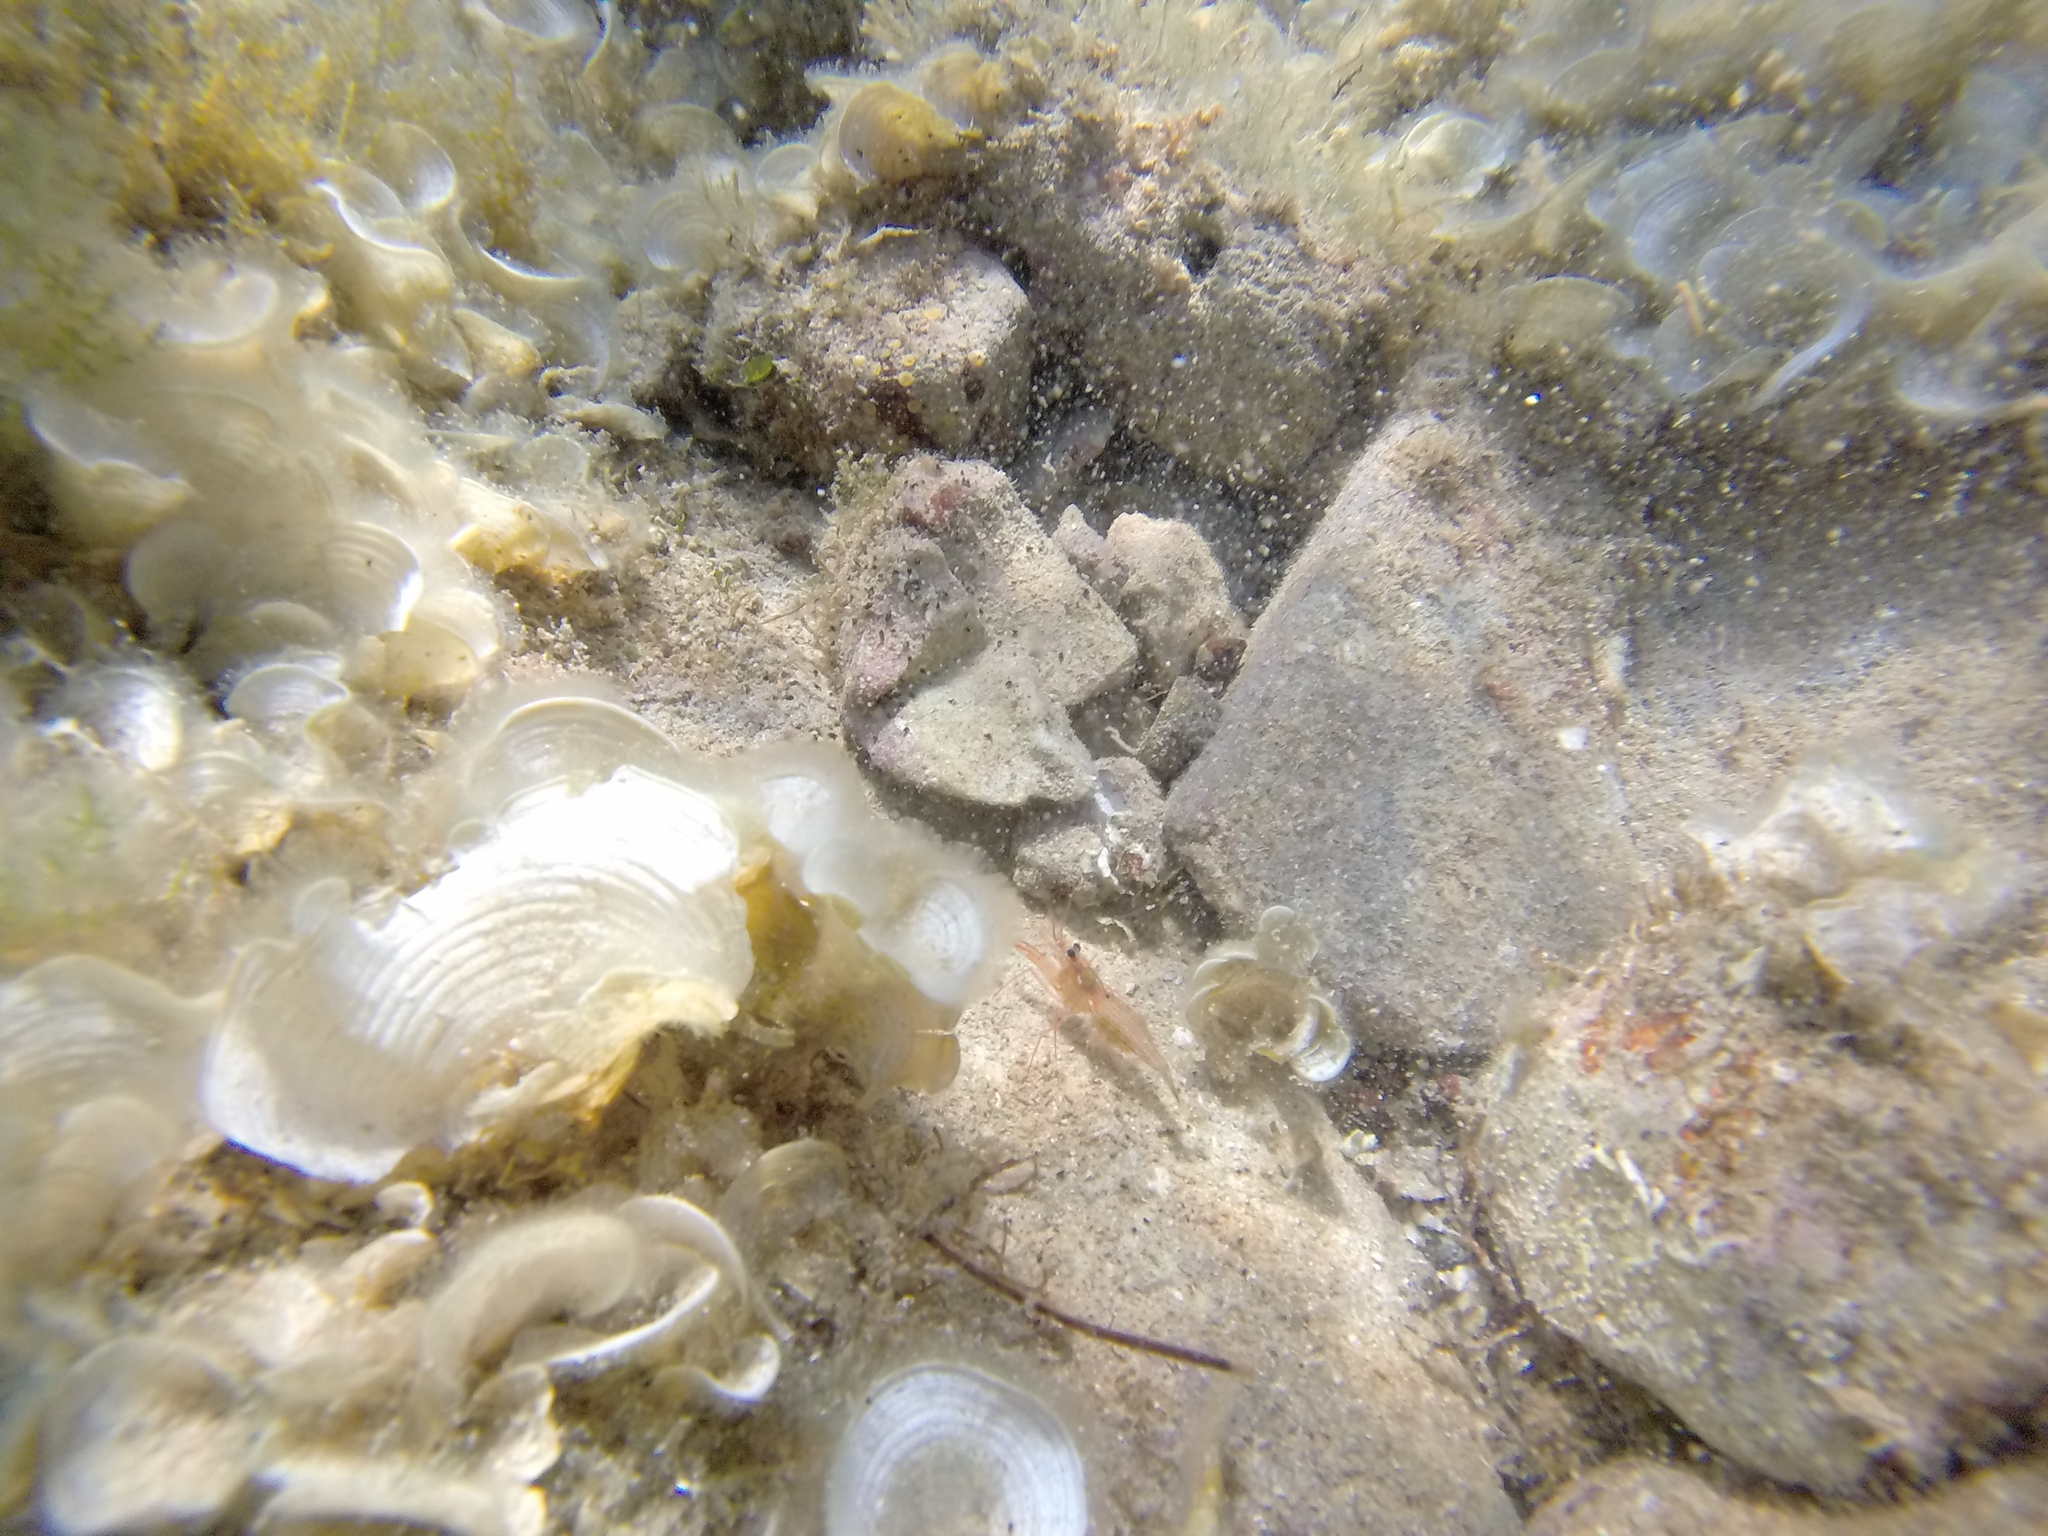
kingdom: Animalia
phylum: Arthropoda
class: Malacostraca
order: Decapoda
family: Lysmatidae
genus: Lysmata
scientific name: Lysmata seticaudata
